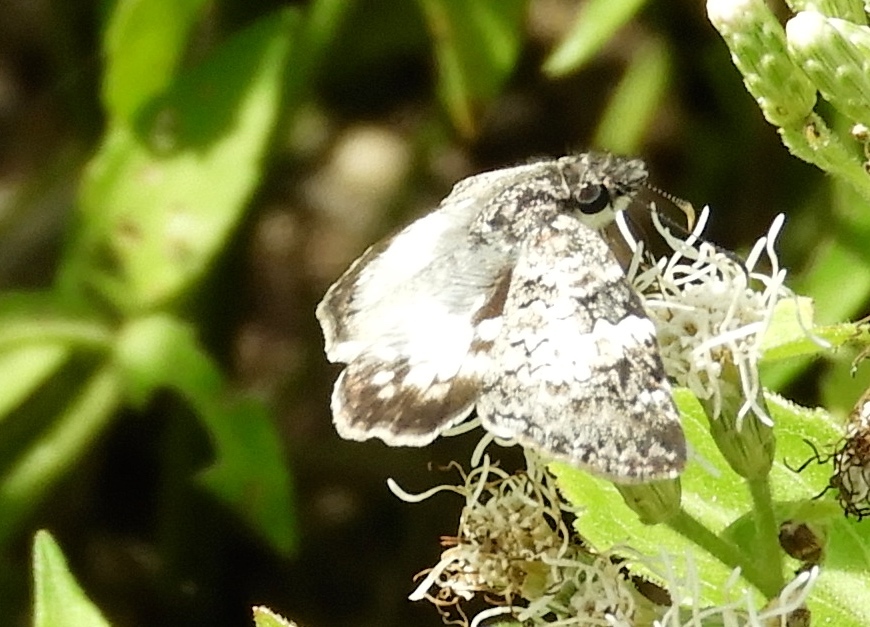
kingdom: Animalia
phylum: Arthropoda
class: Insecta
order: Lepidoptera
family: Hesperiidae
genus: Mylon
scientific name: Mylon lassia
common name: Bold mylon
